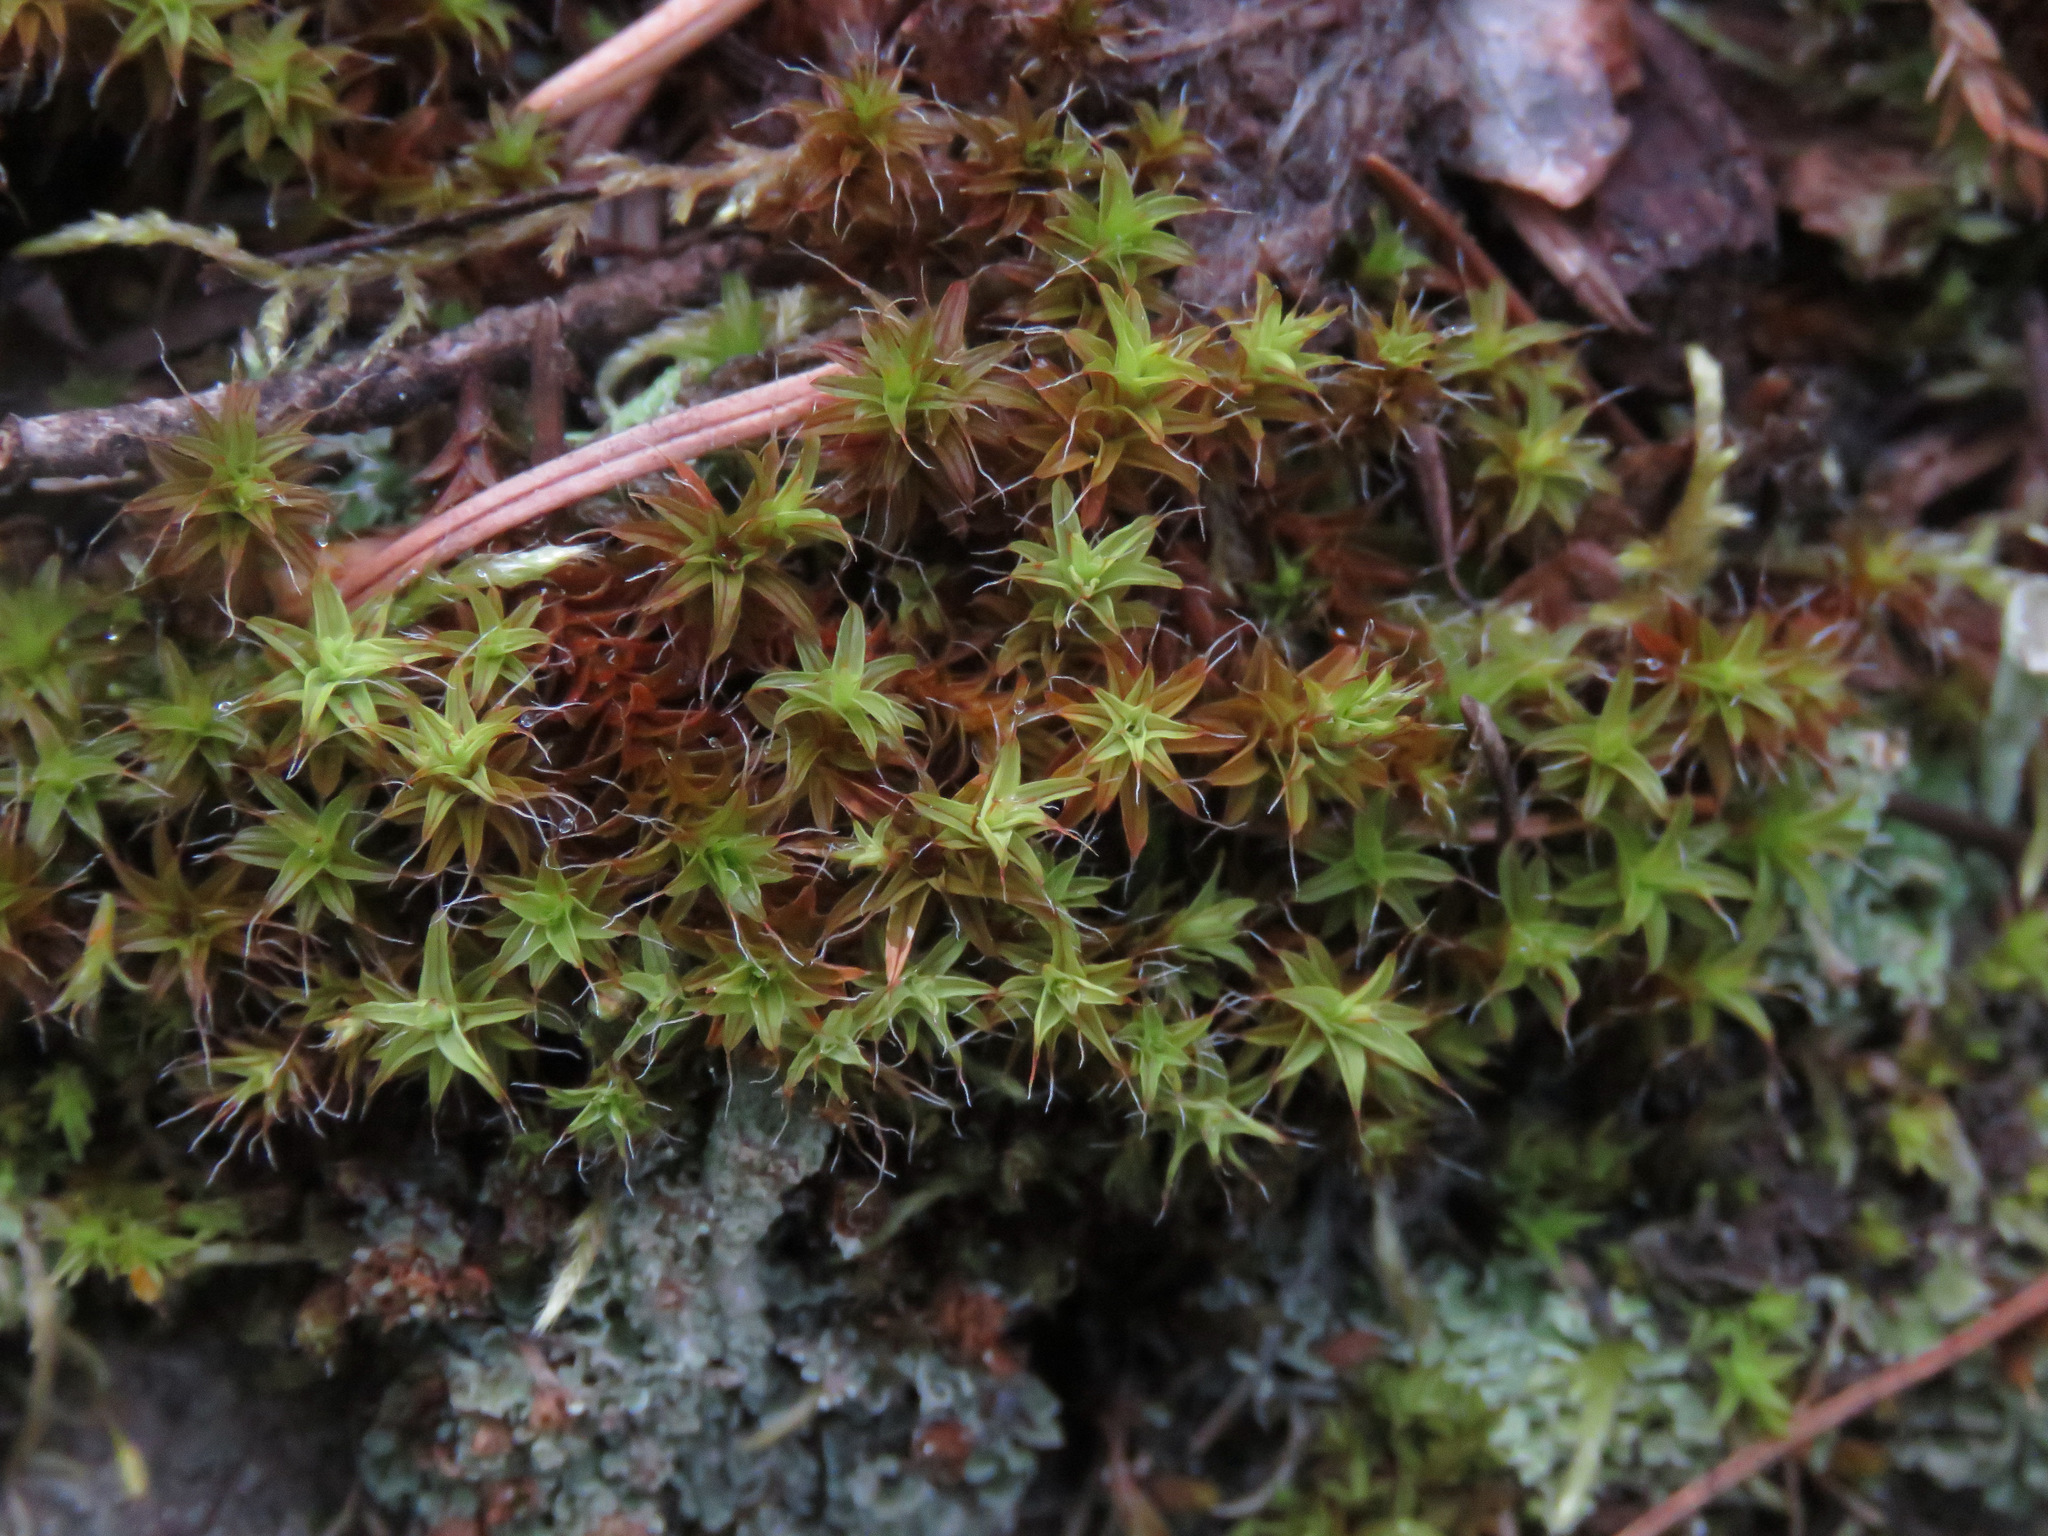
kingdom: Plantae
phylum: Bryophyta
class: Bryopsida
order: Pottiales
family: Pottiaceae
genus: Syntrichia
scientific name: Syntrichia ruralis
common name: Sidewalk screw moss
